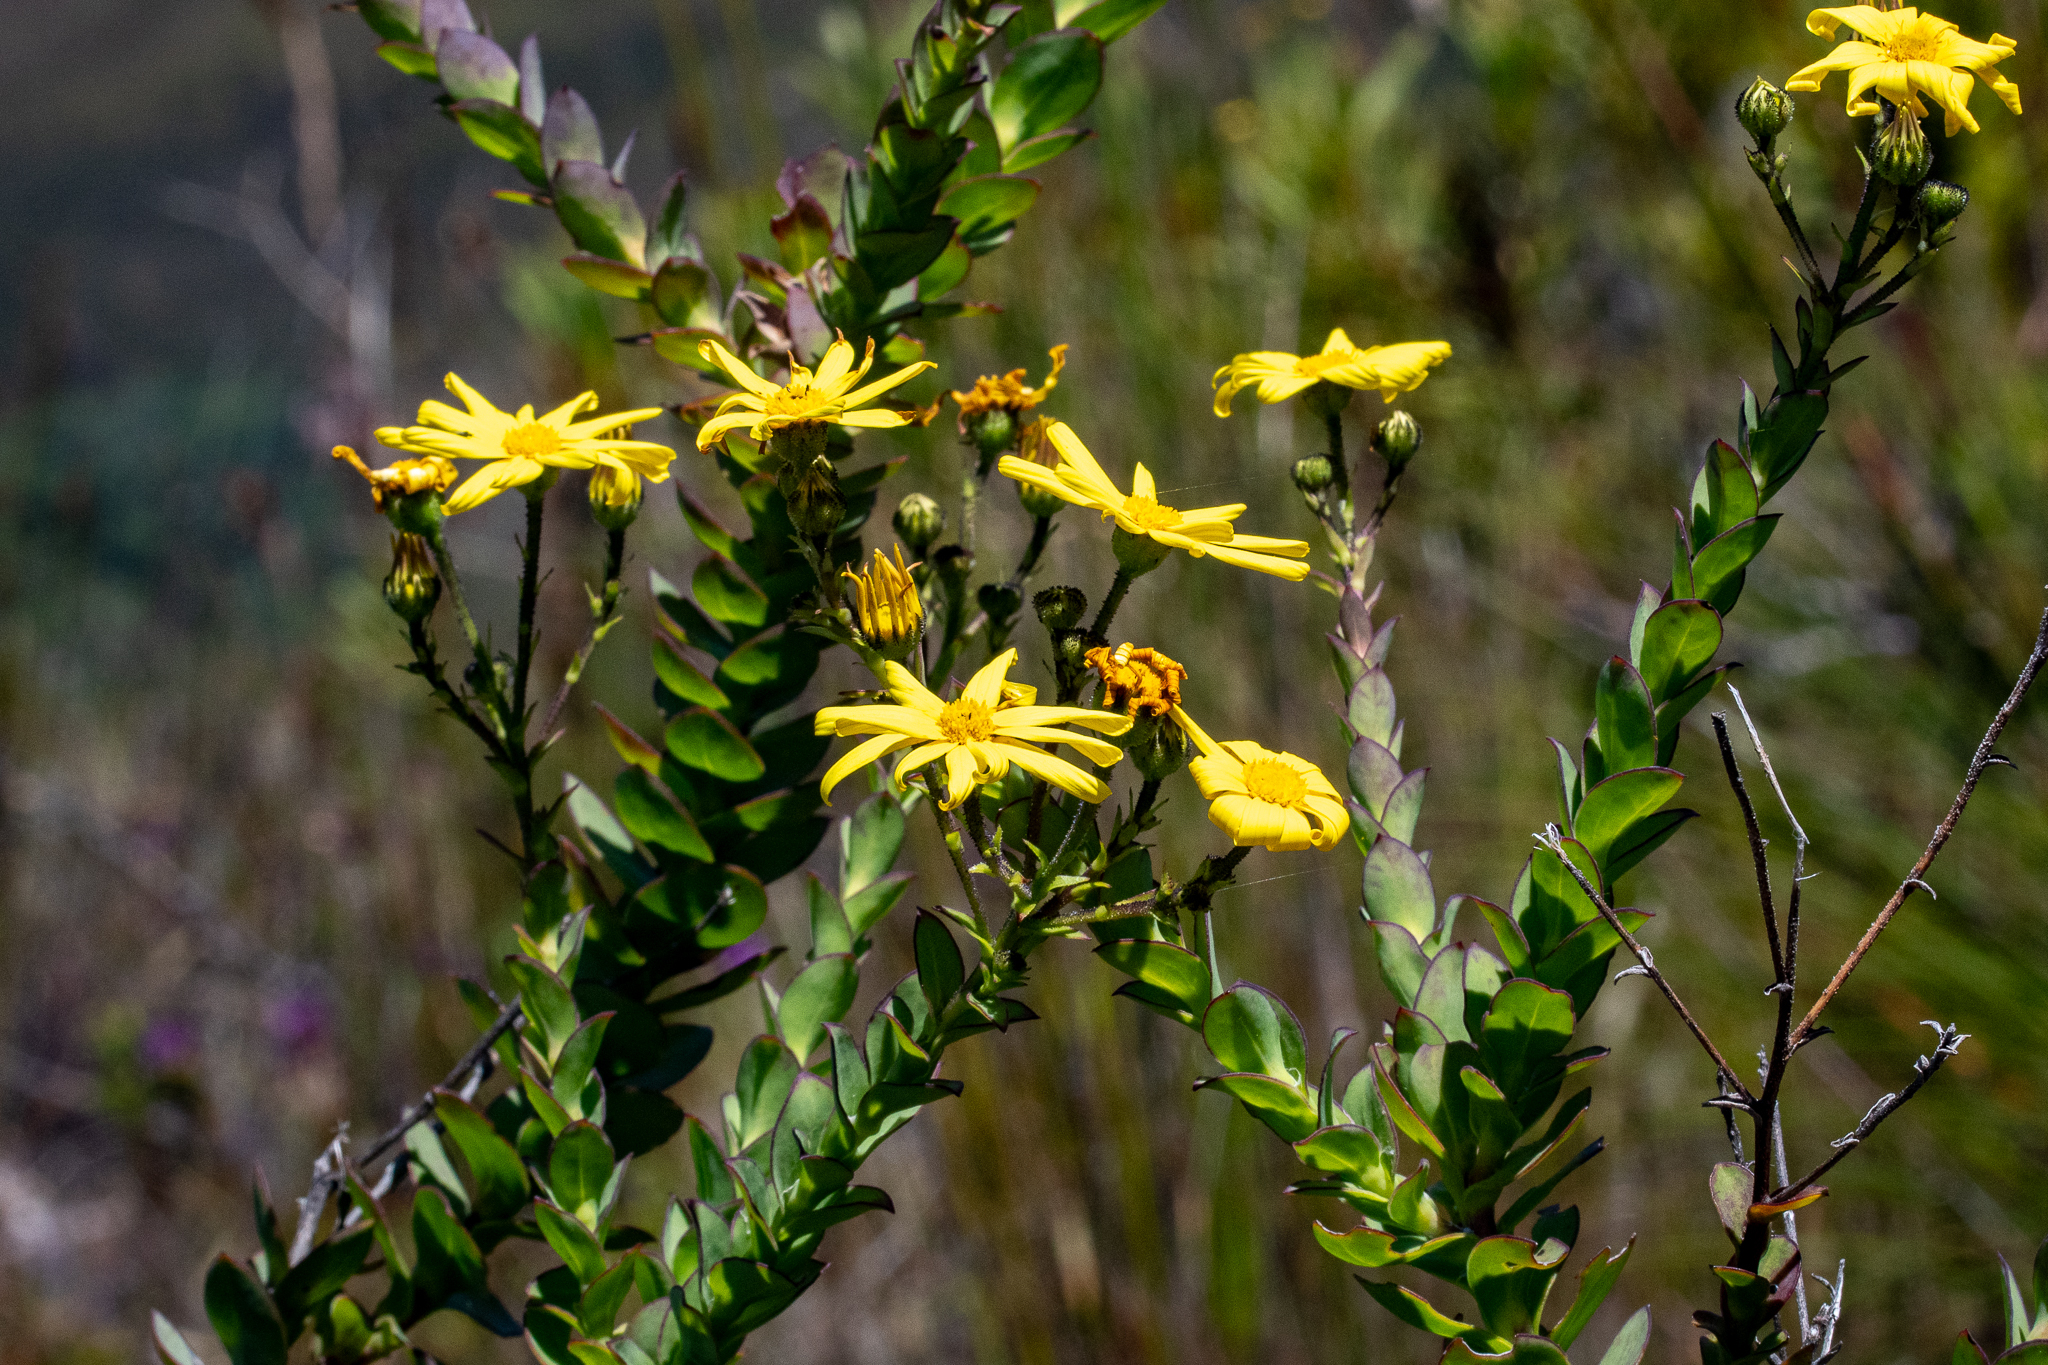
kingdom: Plantae
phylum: Tracheophyta
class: Magnoliopsida
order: Asterales
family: Asteraceae
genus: Osteospermum
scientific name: Osteospermum rotundifolium
